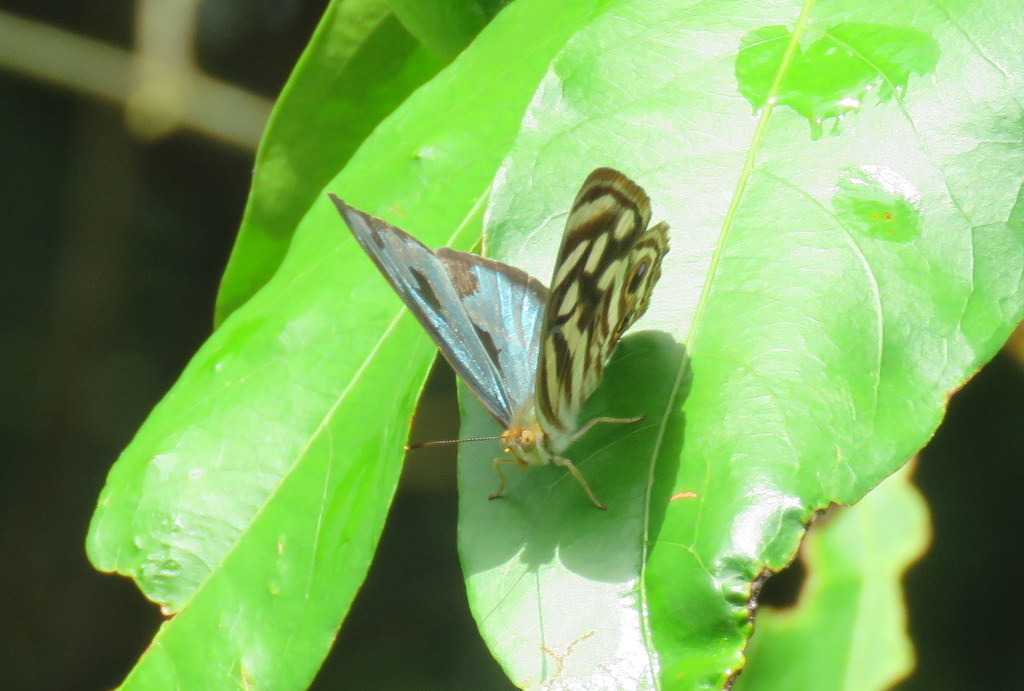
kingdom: Animalia
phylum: Arthropoda
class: Insecta
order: Lepidoptera
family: Nymphalidae
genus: Dynamine
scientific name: Dynamine mylitta
